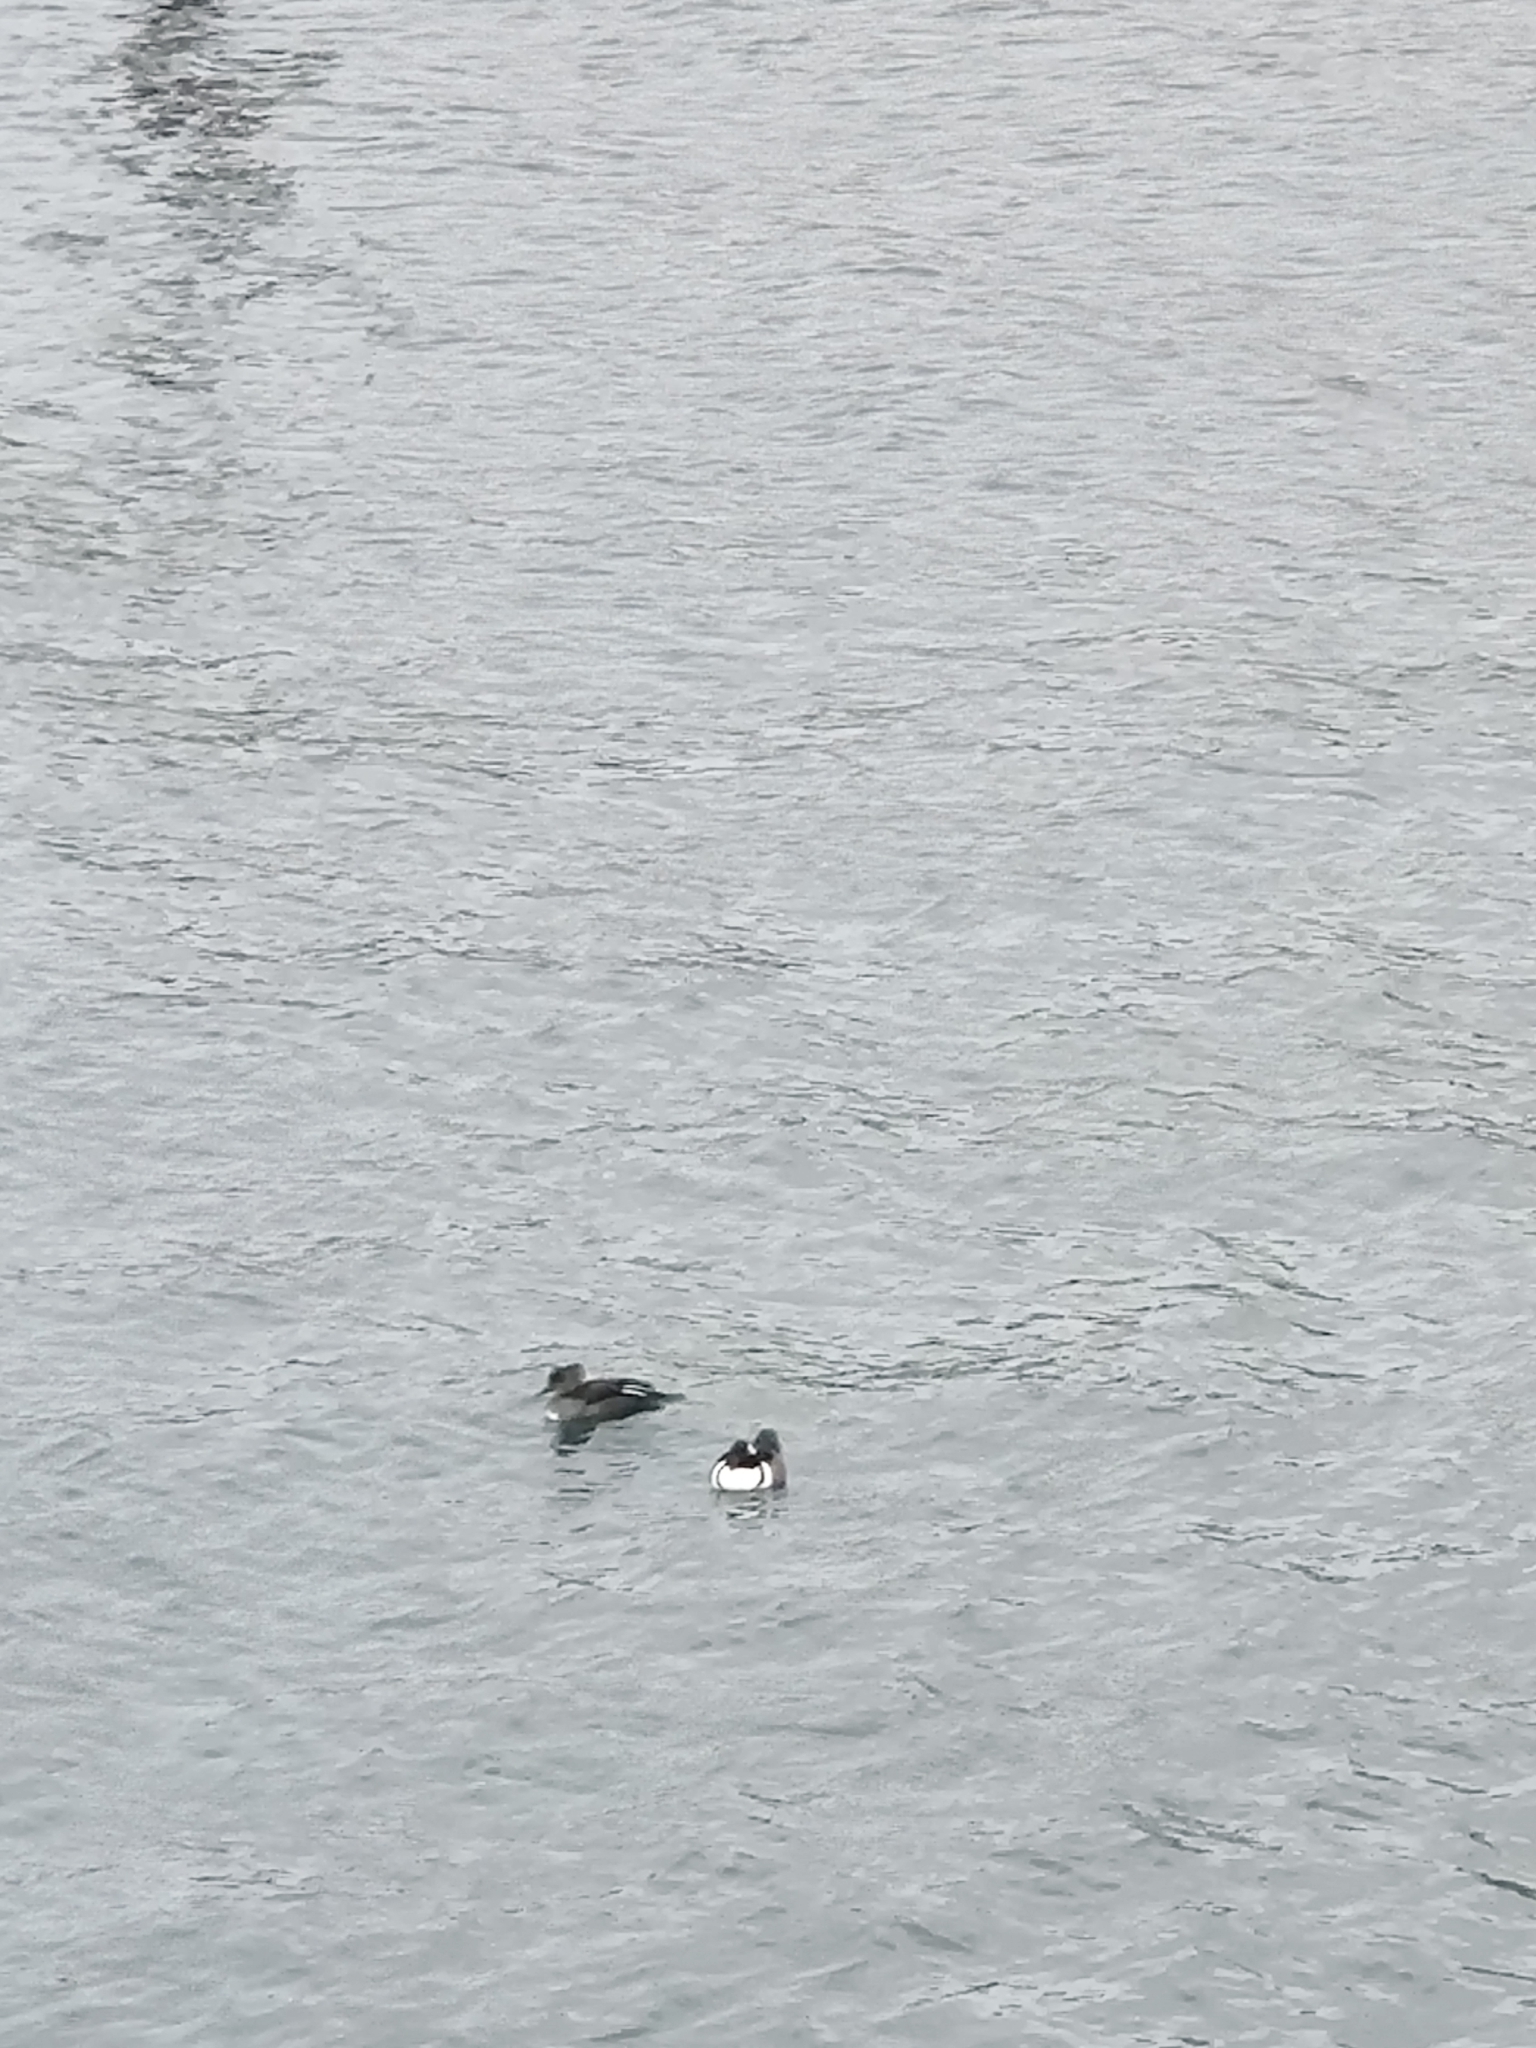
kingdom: Animalia
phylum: Chordata
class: Aves
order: Anseriformes
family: Anatidae
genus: Lophodytes
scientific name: Lophodytes cucullatus
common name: Hooded merganser
